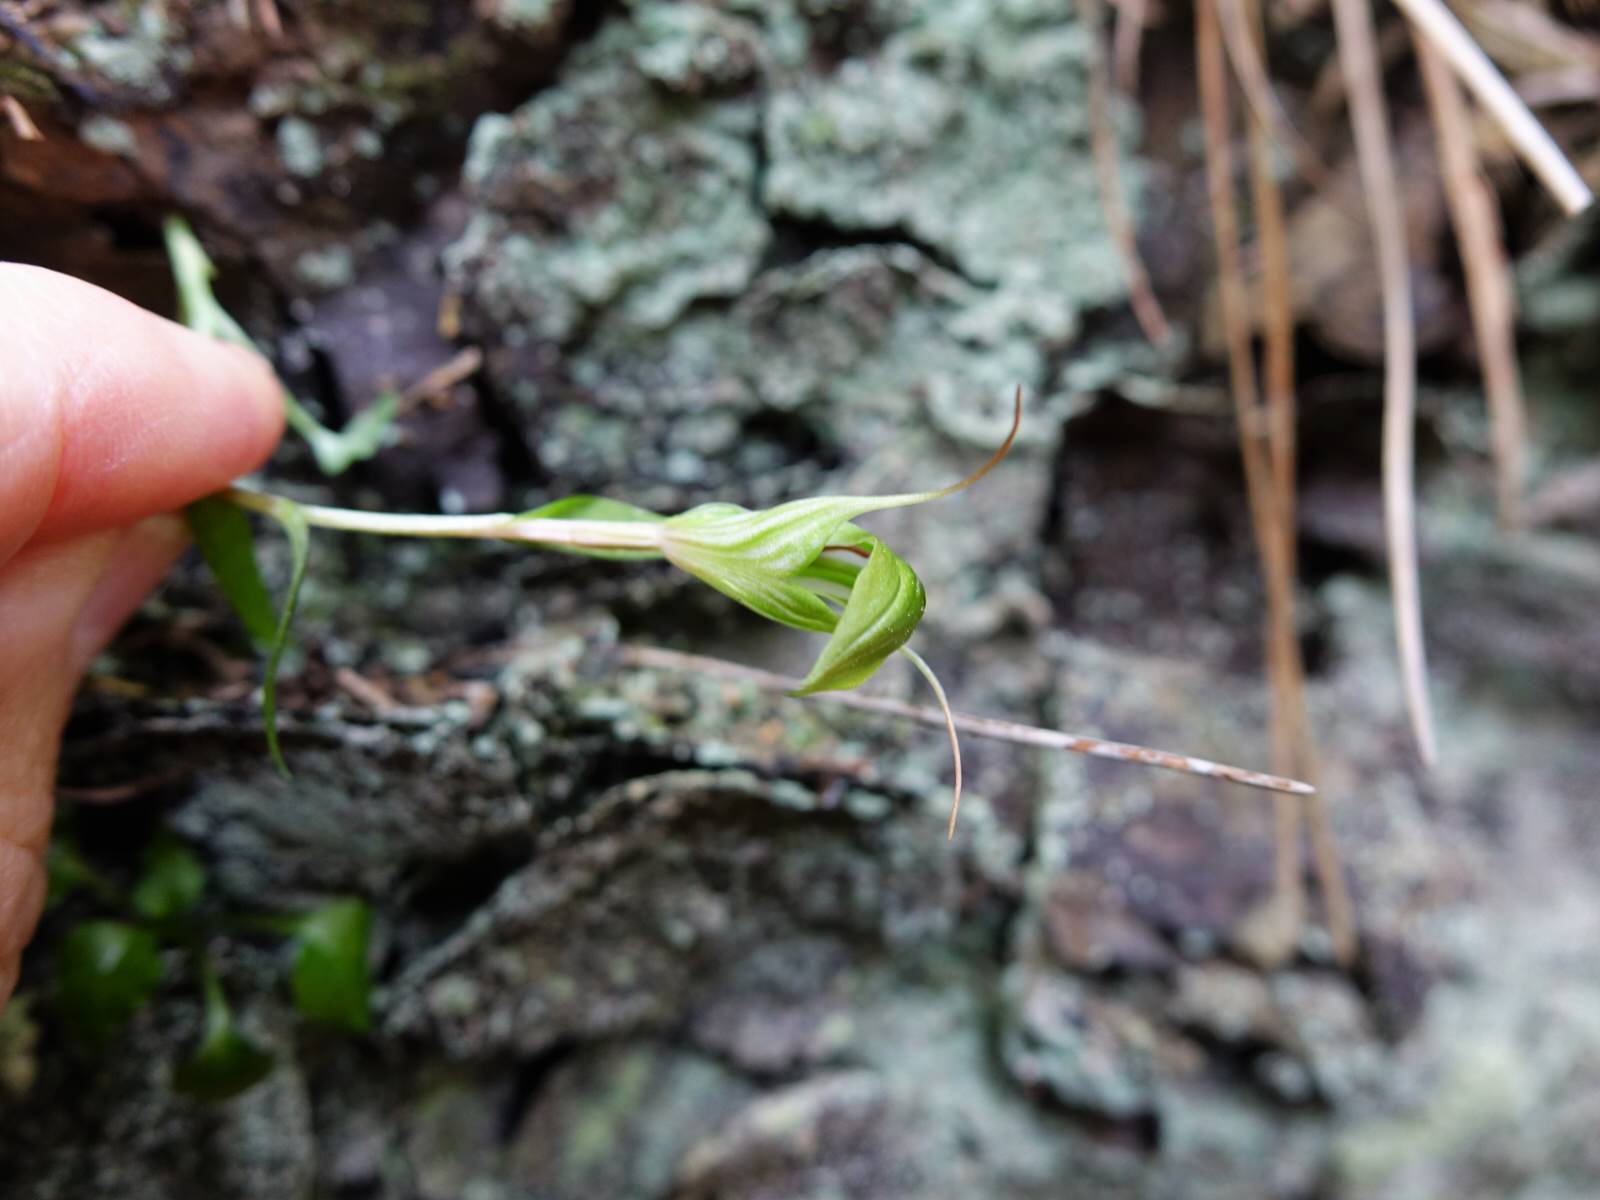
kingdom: Plantae
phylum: Tracheophyta
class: Liliopsida
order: Asparagales
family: Orchidaceae
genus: Pterostylis
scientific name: Pterostylis alobula
